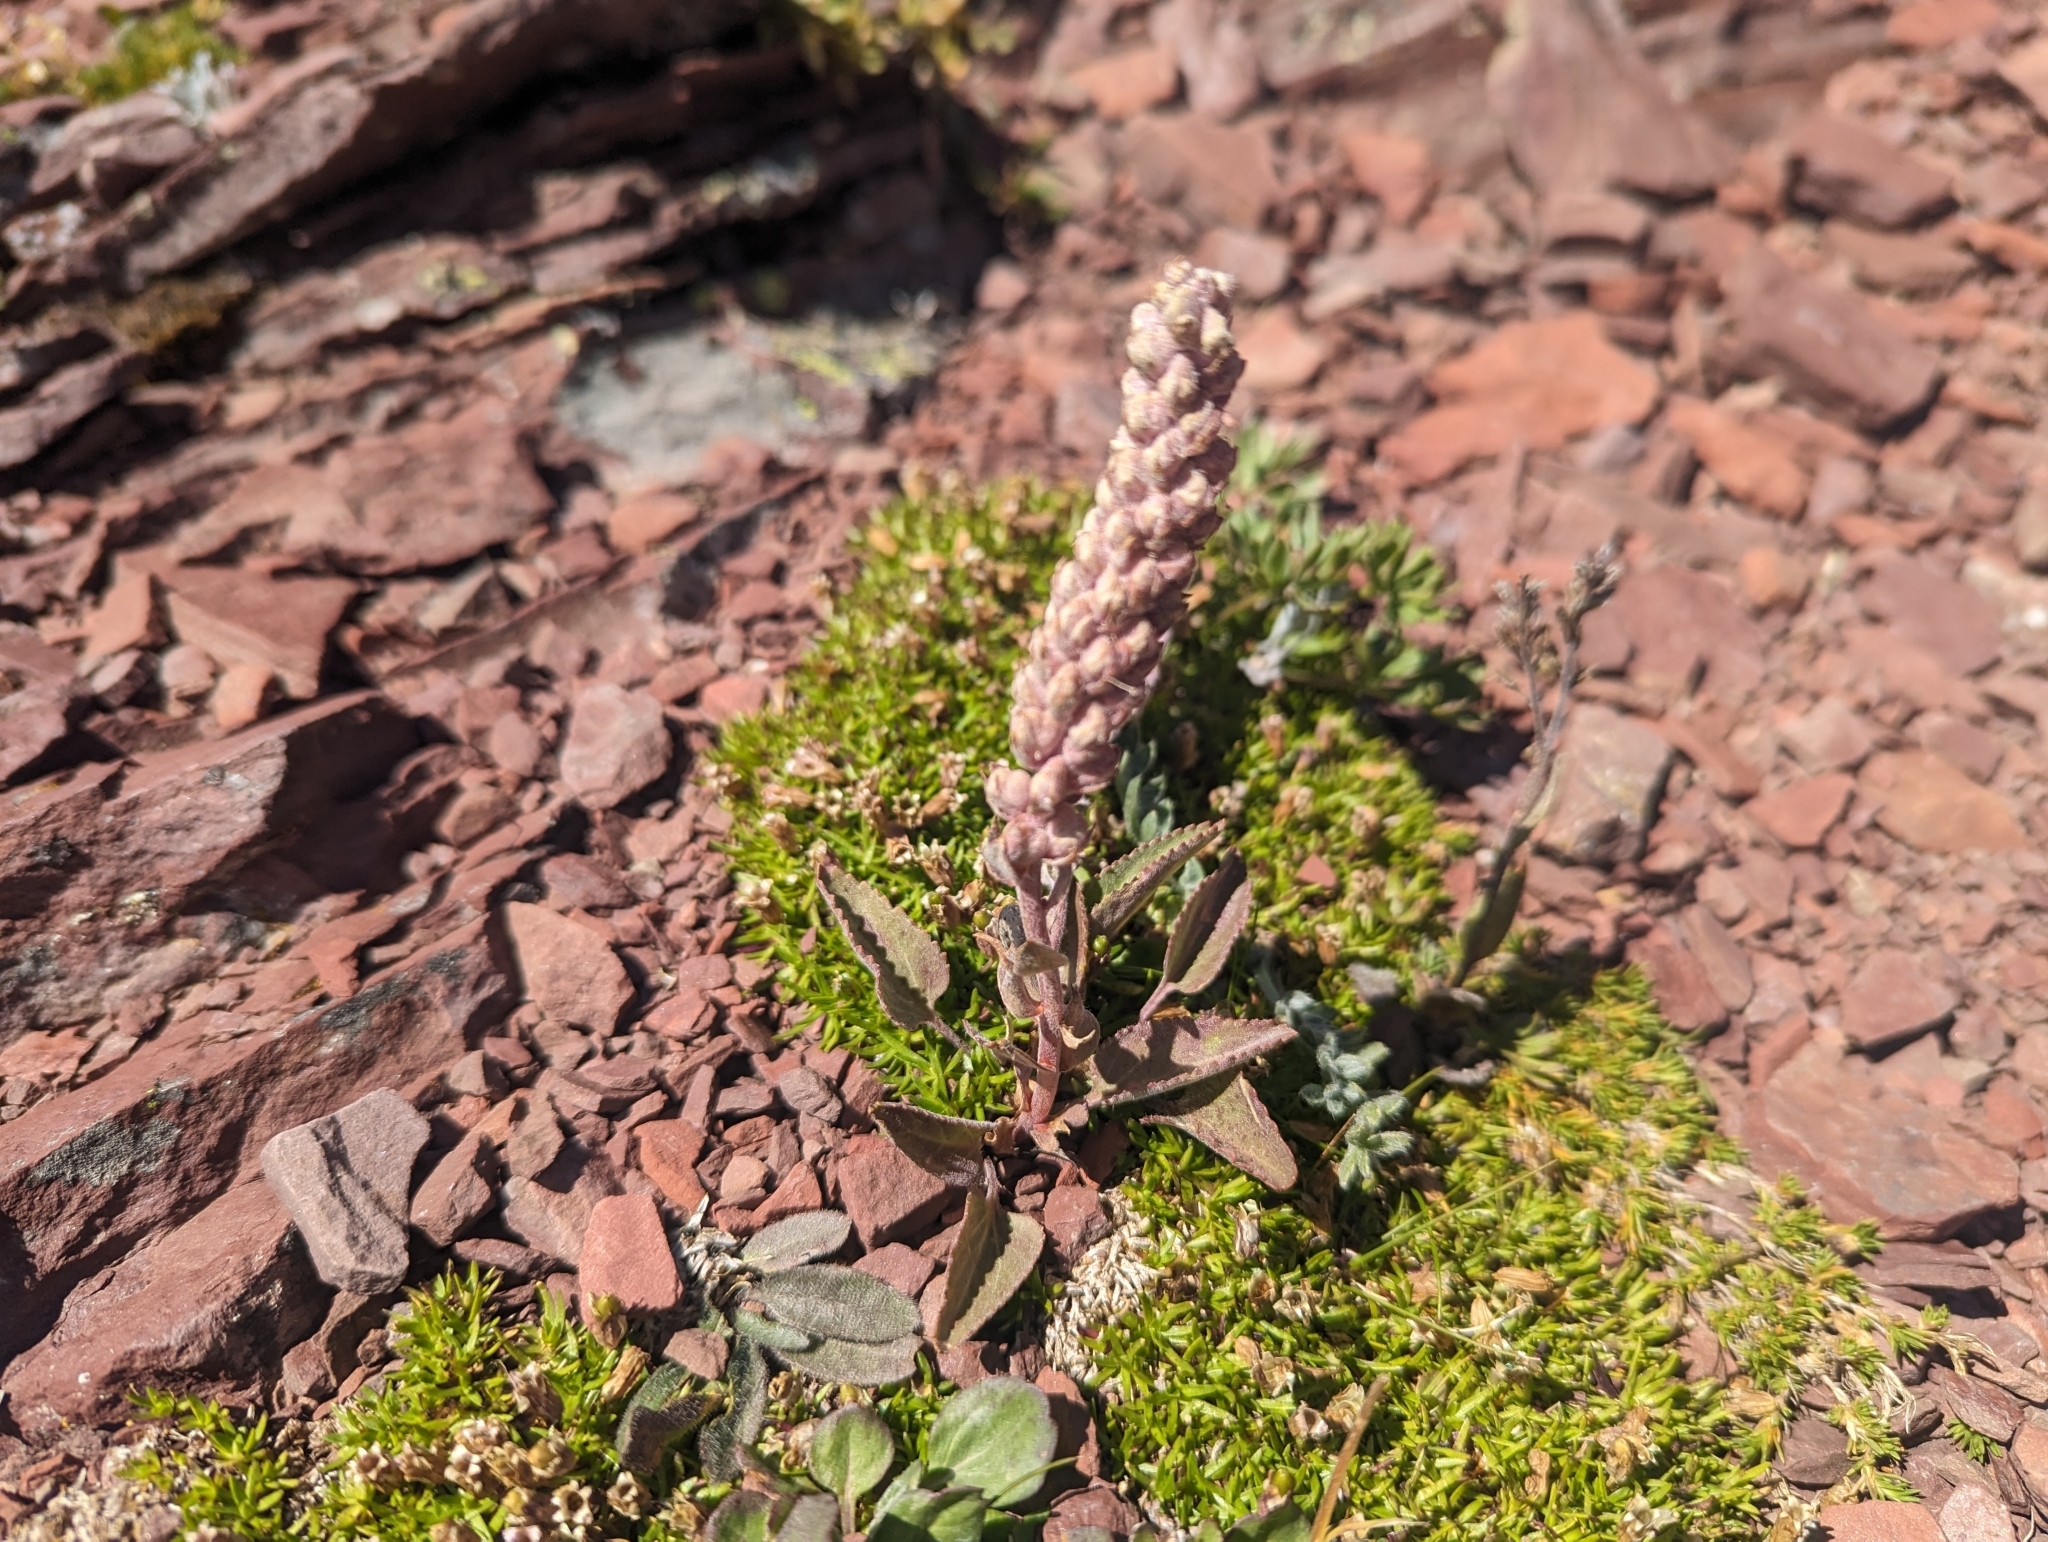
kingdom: Plantae
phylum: Tracheophyta
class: Magnoliopsida
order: Lamiales
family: Plantaginaceae
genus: Synthyris
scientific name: Synthyris wyomingensis
